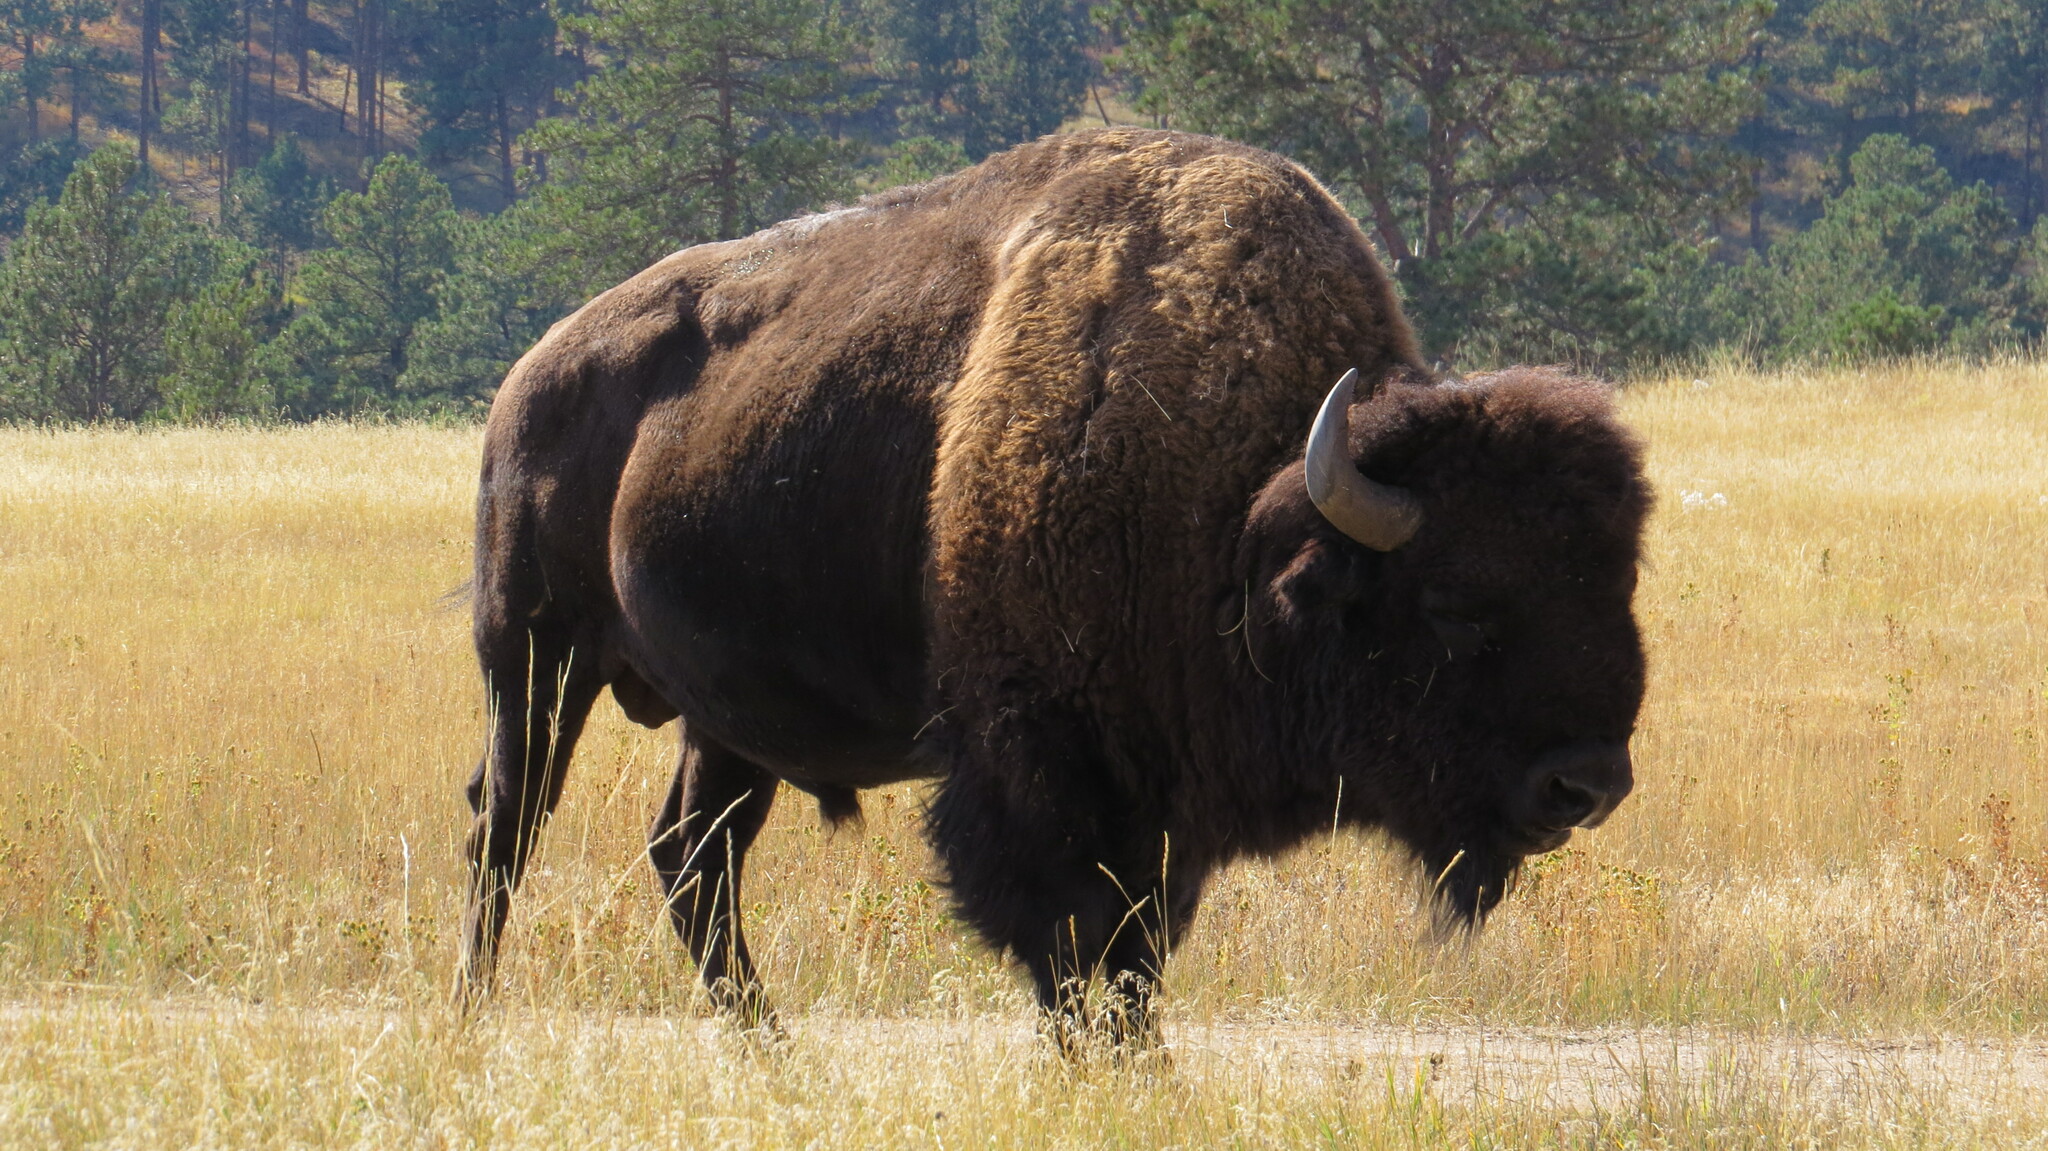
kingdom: Animalia
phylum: Chordata
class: Mammalia
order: Artiodactyla
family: Bovidae
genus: Bison
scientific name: Bison bison
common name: American bison
